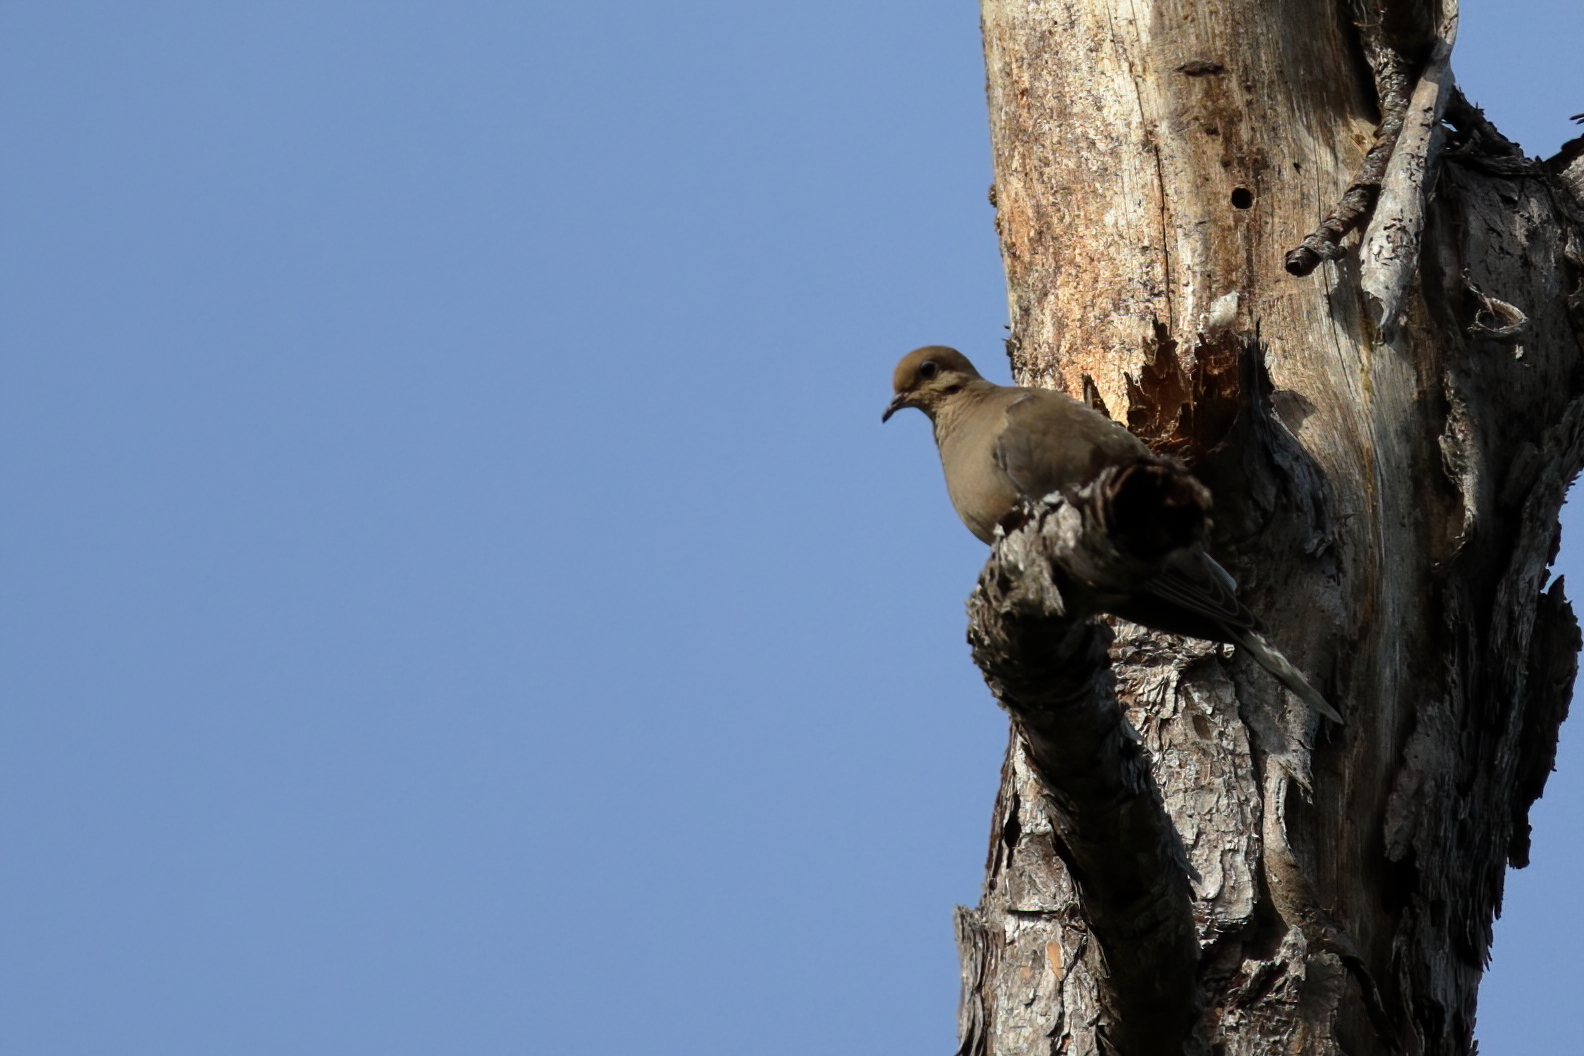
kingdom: Animalia
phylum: Chordata
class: Aves
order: Columbiformes
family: Columbidae
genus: Zenaida
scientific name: Zenaida macroura
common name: Mourning dove
